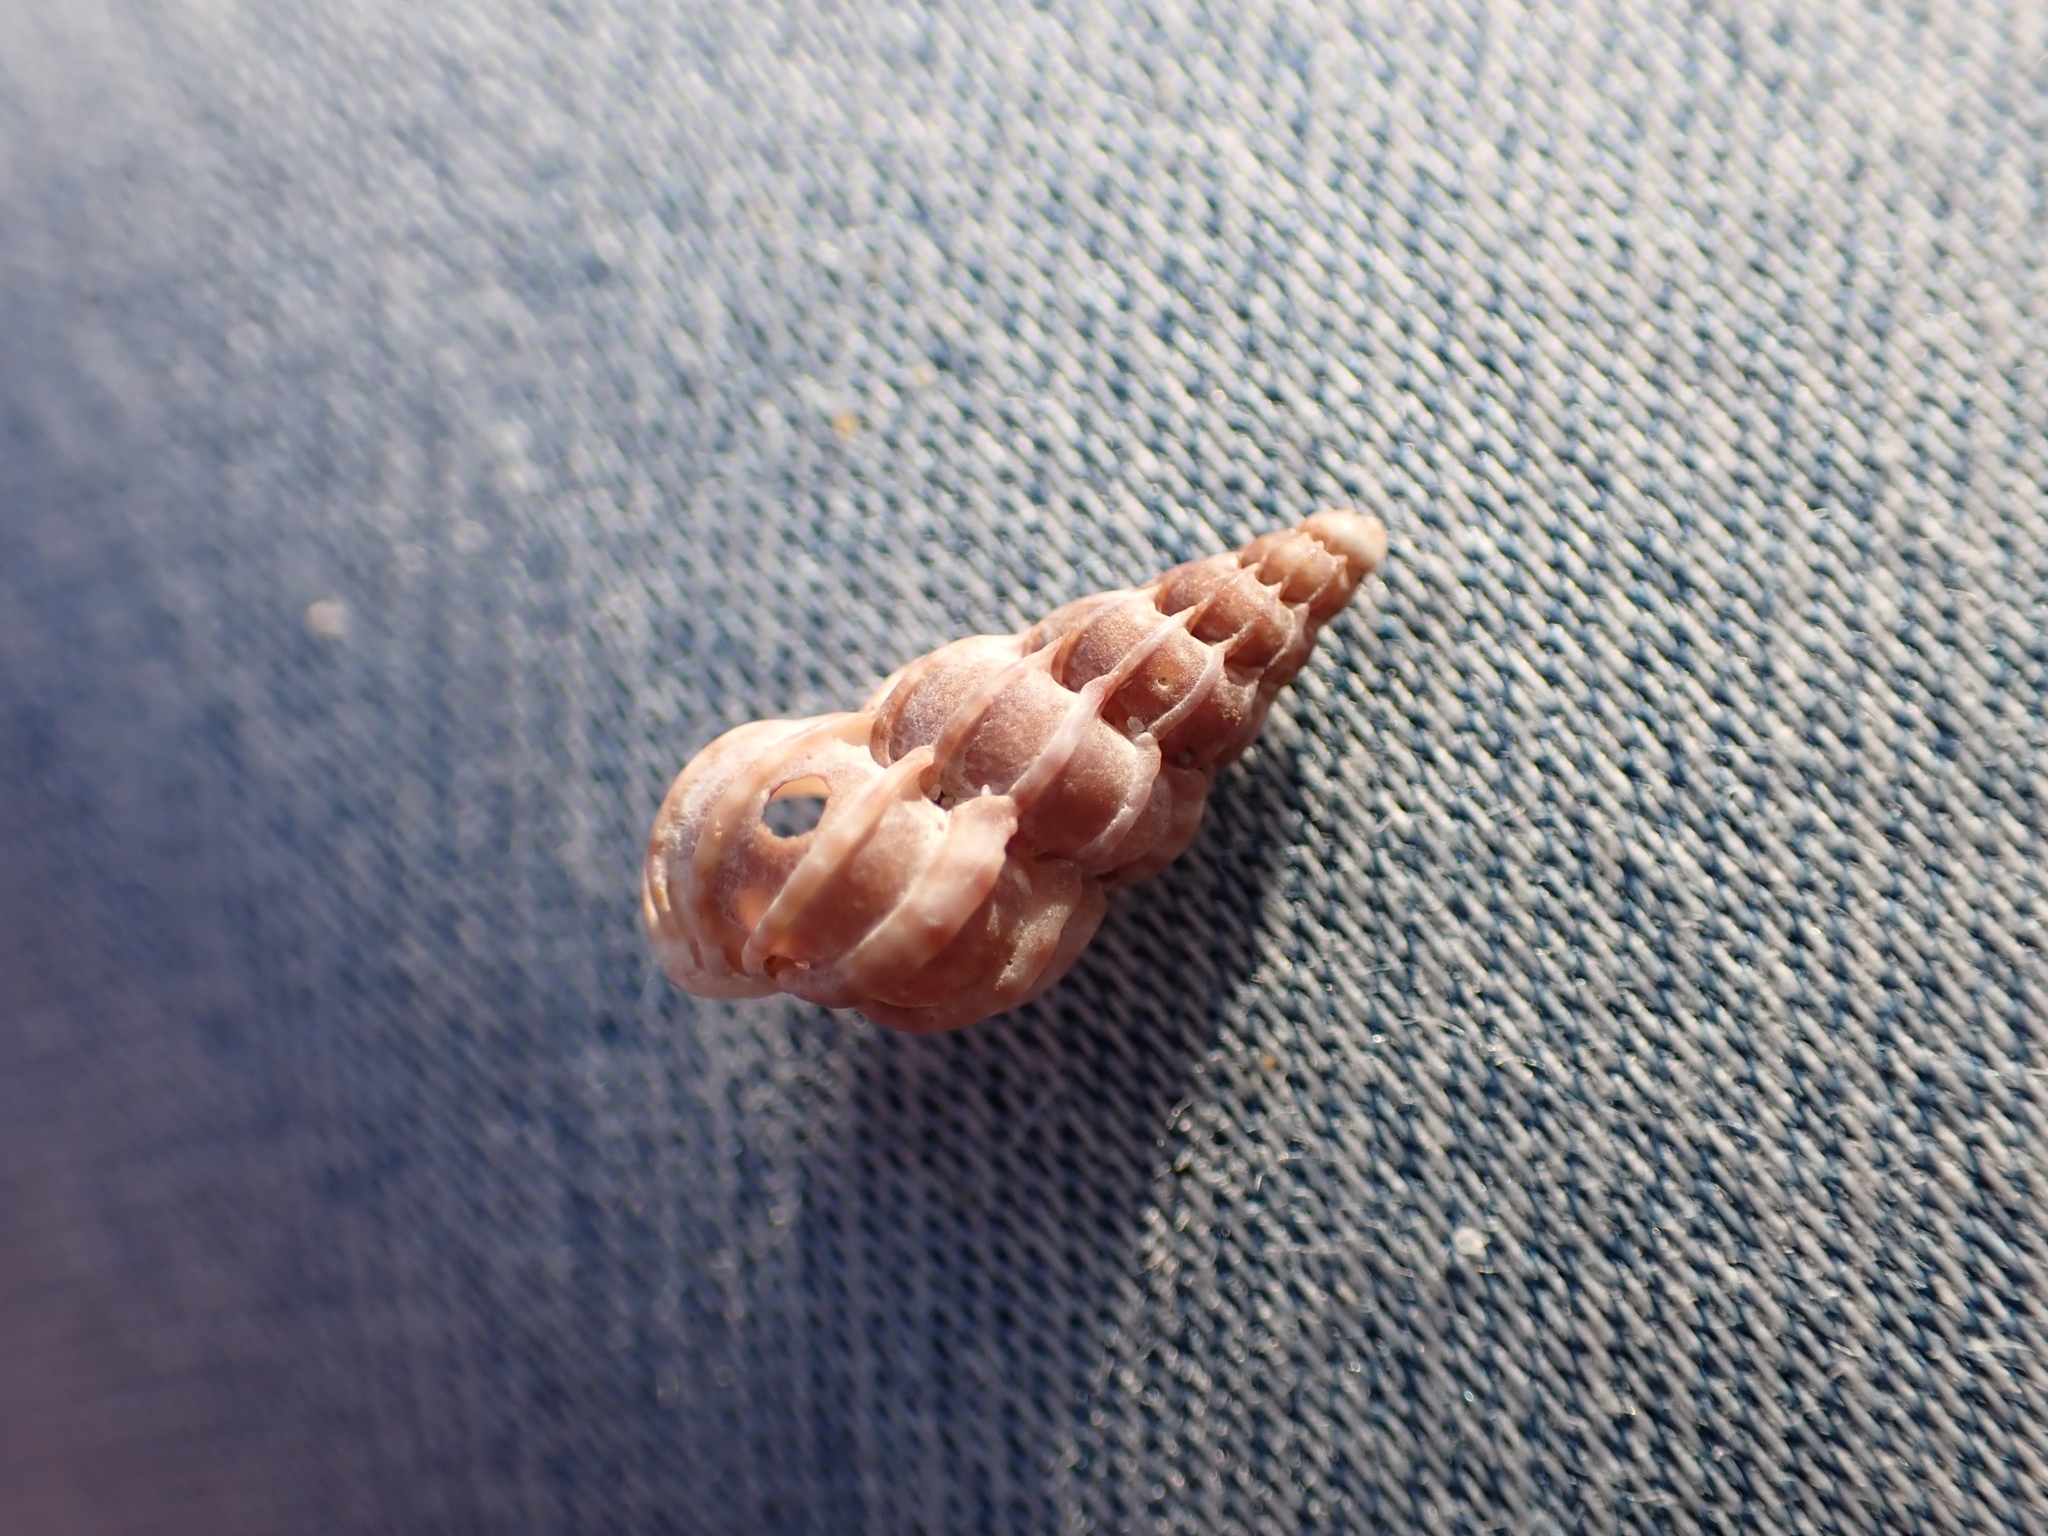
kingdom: Animalia
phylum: Mollusca
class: Gastropoda
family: Epitoniidae
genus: Epitonium
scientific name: Epitonium clathrus
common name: Common wentletrap
